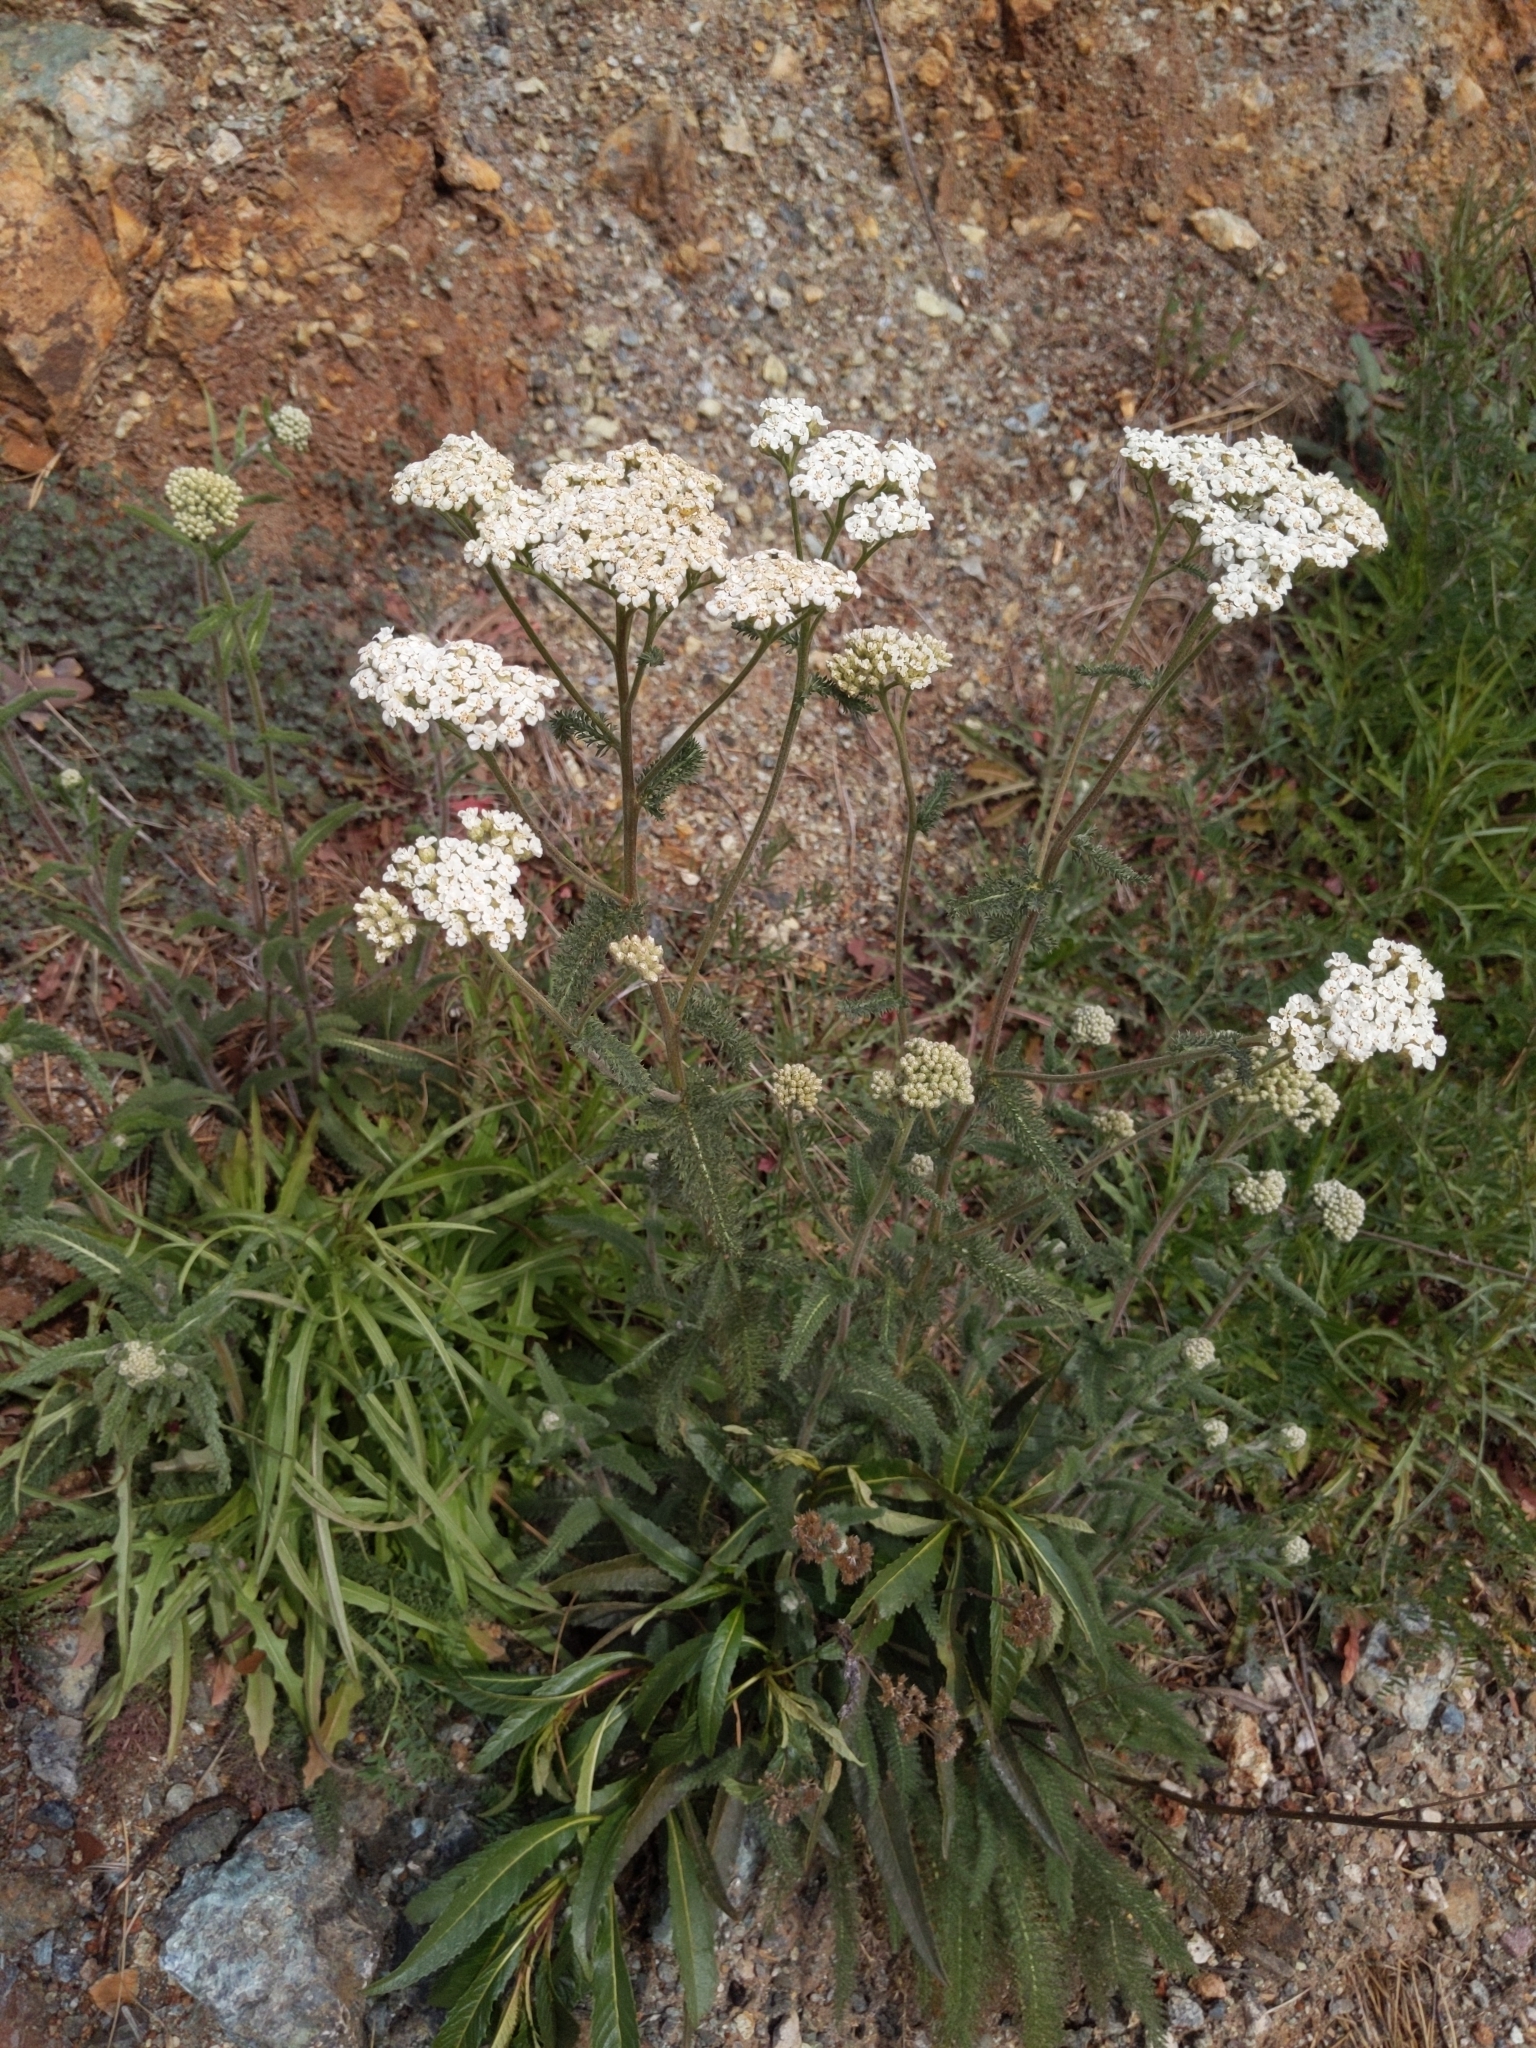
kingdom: Plantae
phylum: Tracheophyta
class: Magnoliopsida
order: Asterales
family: Asteraceae
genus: Achillea
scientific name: Achillea millefolium
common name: Yarrow
